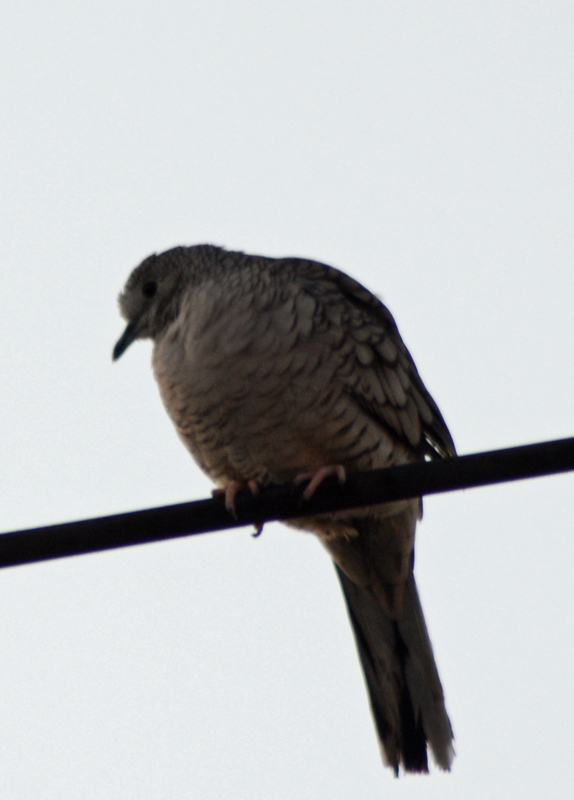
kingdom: Animalia
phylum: Chordata
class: Aves
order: Columbiformes
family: Columbidae
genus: Columbina
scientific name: Columbina inca
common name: Inca dove
